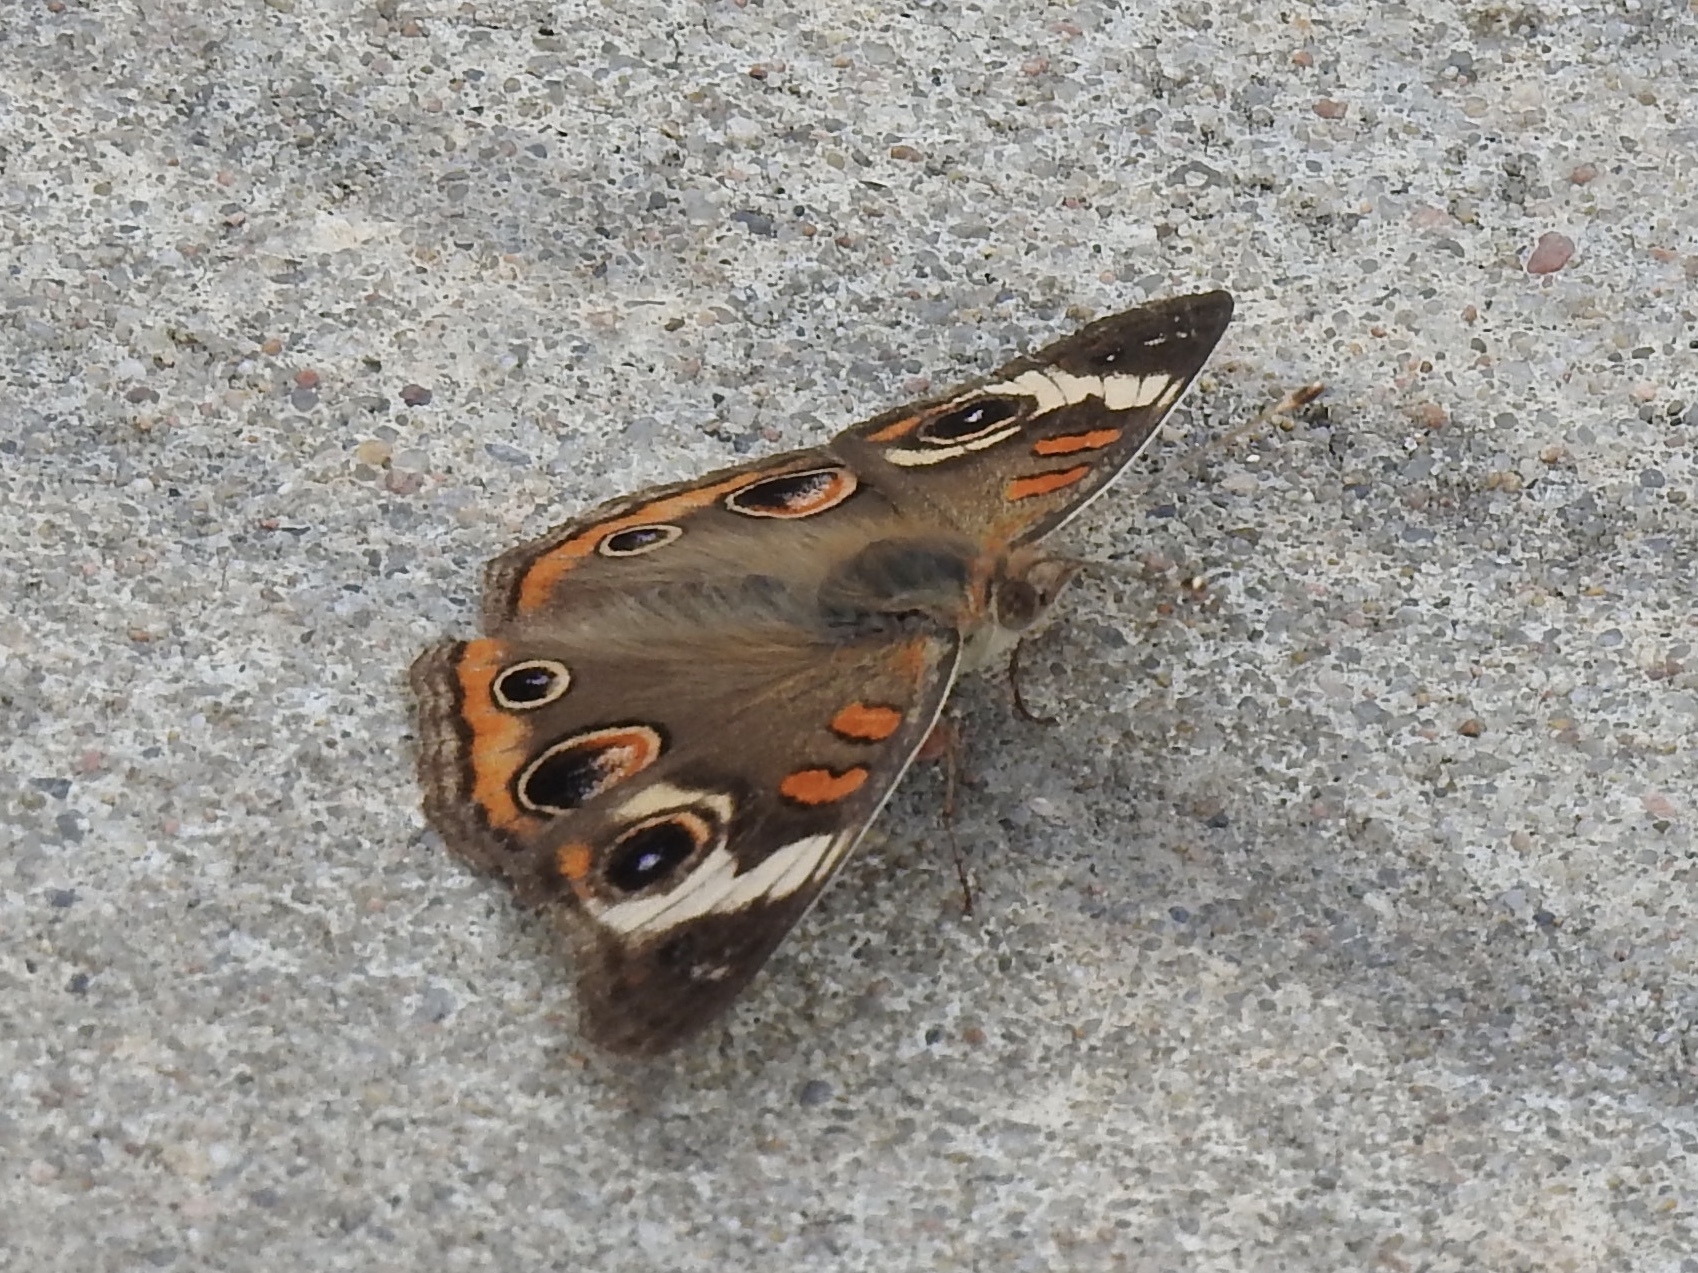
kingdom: Animalia
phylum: Arthropoda
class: Insecta
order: Lepidoptera
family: Nymphalidae
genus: Junonia
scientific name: Junonia coenia
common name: Common buckeye
